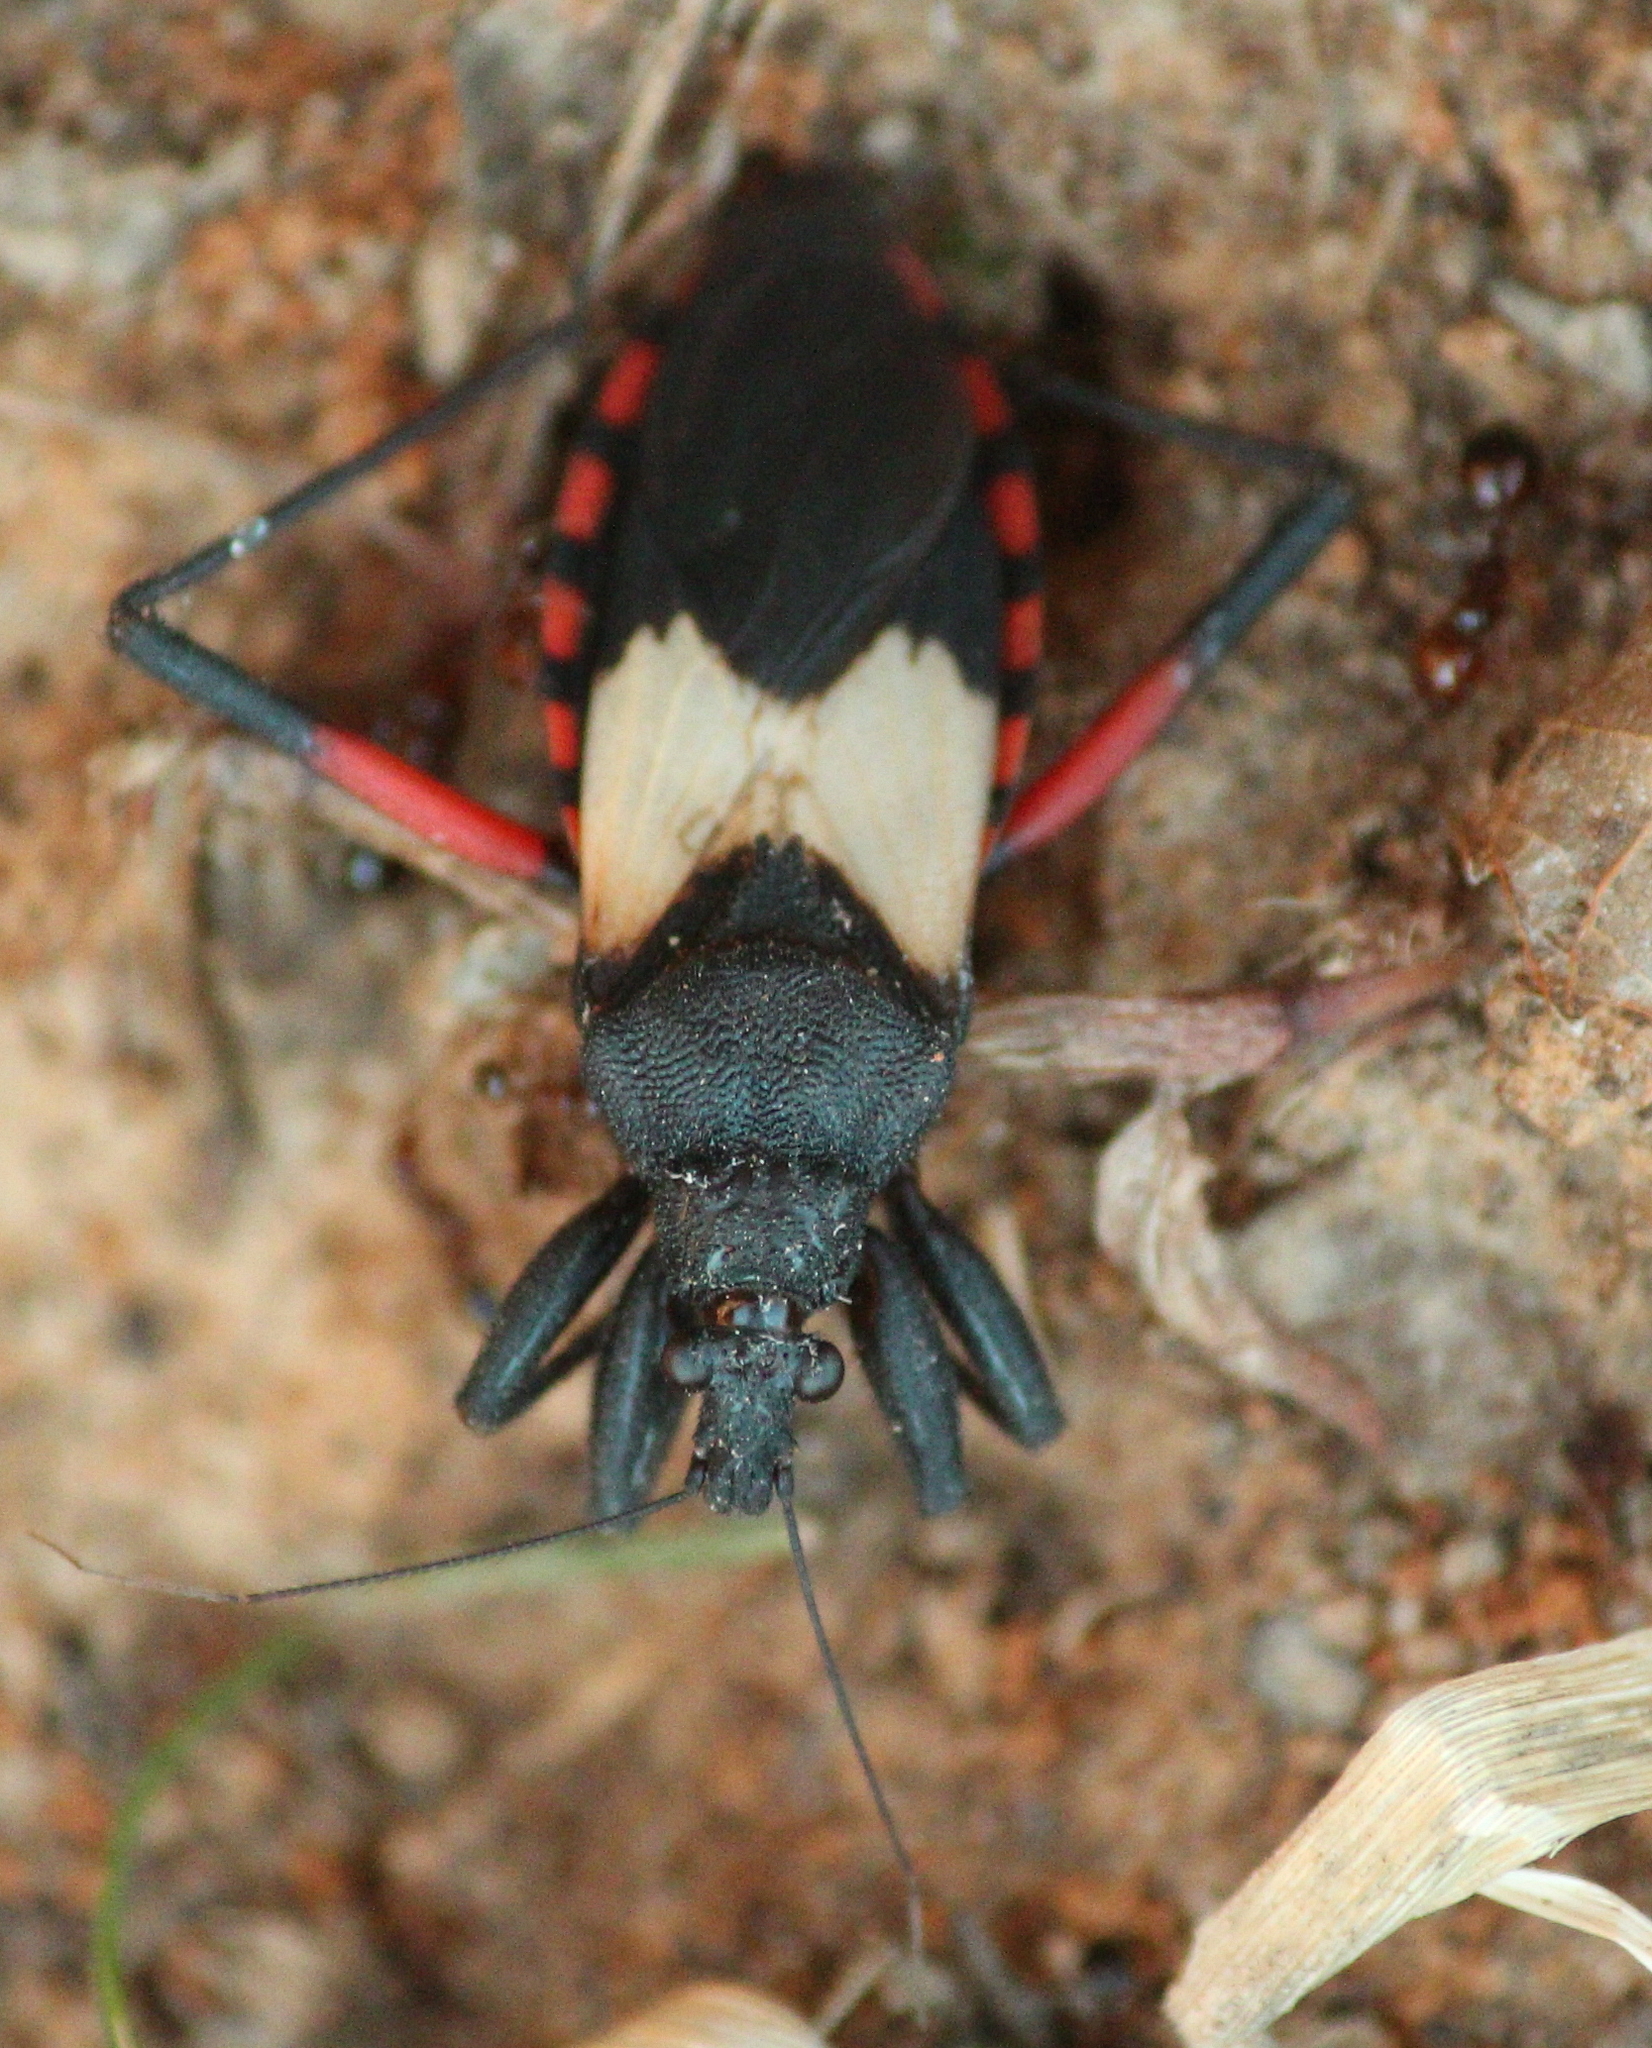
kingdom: Animalia
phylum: Arthropoda
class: Insecta
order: Hemiptera
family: Reduviidae
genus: Microtomus
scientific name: Microtomus purcis
